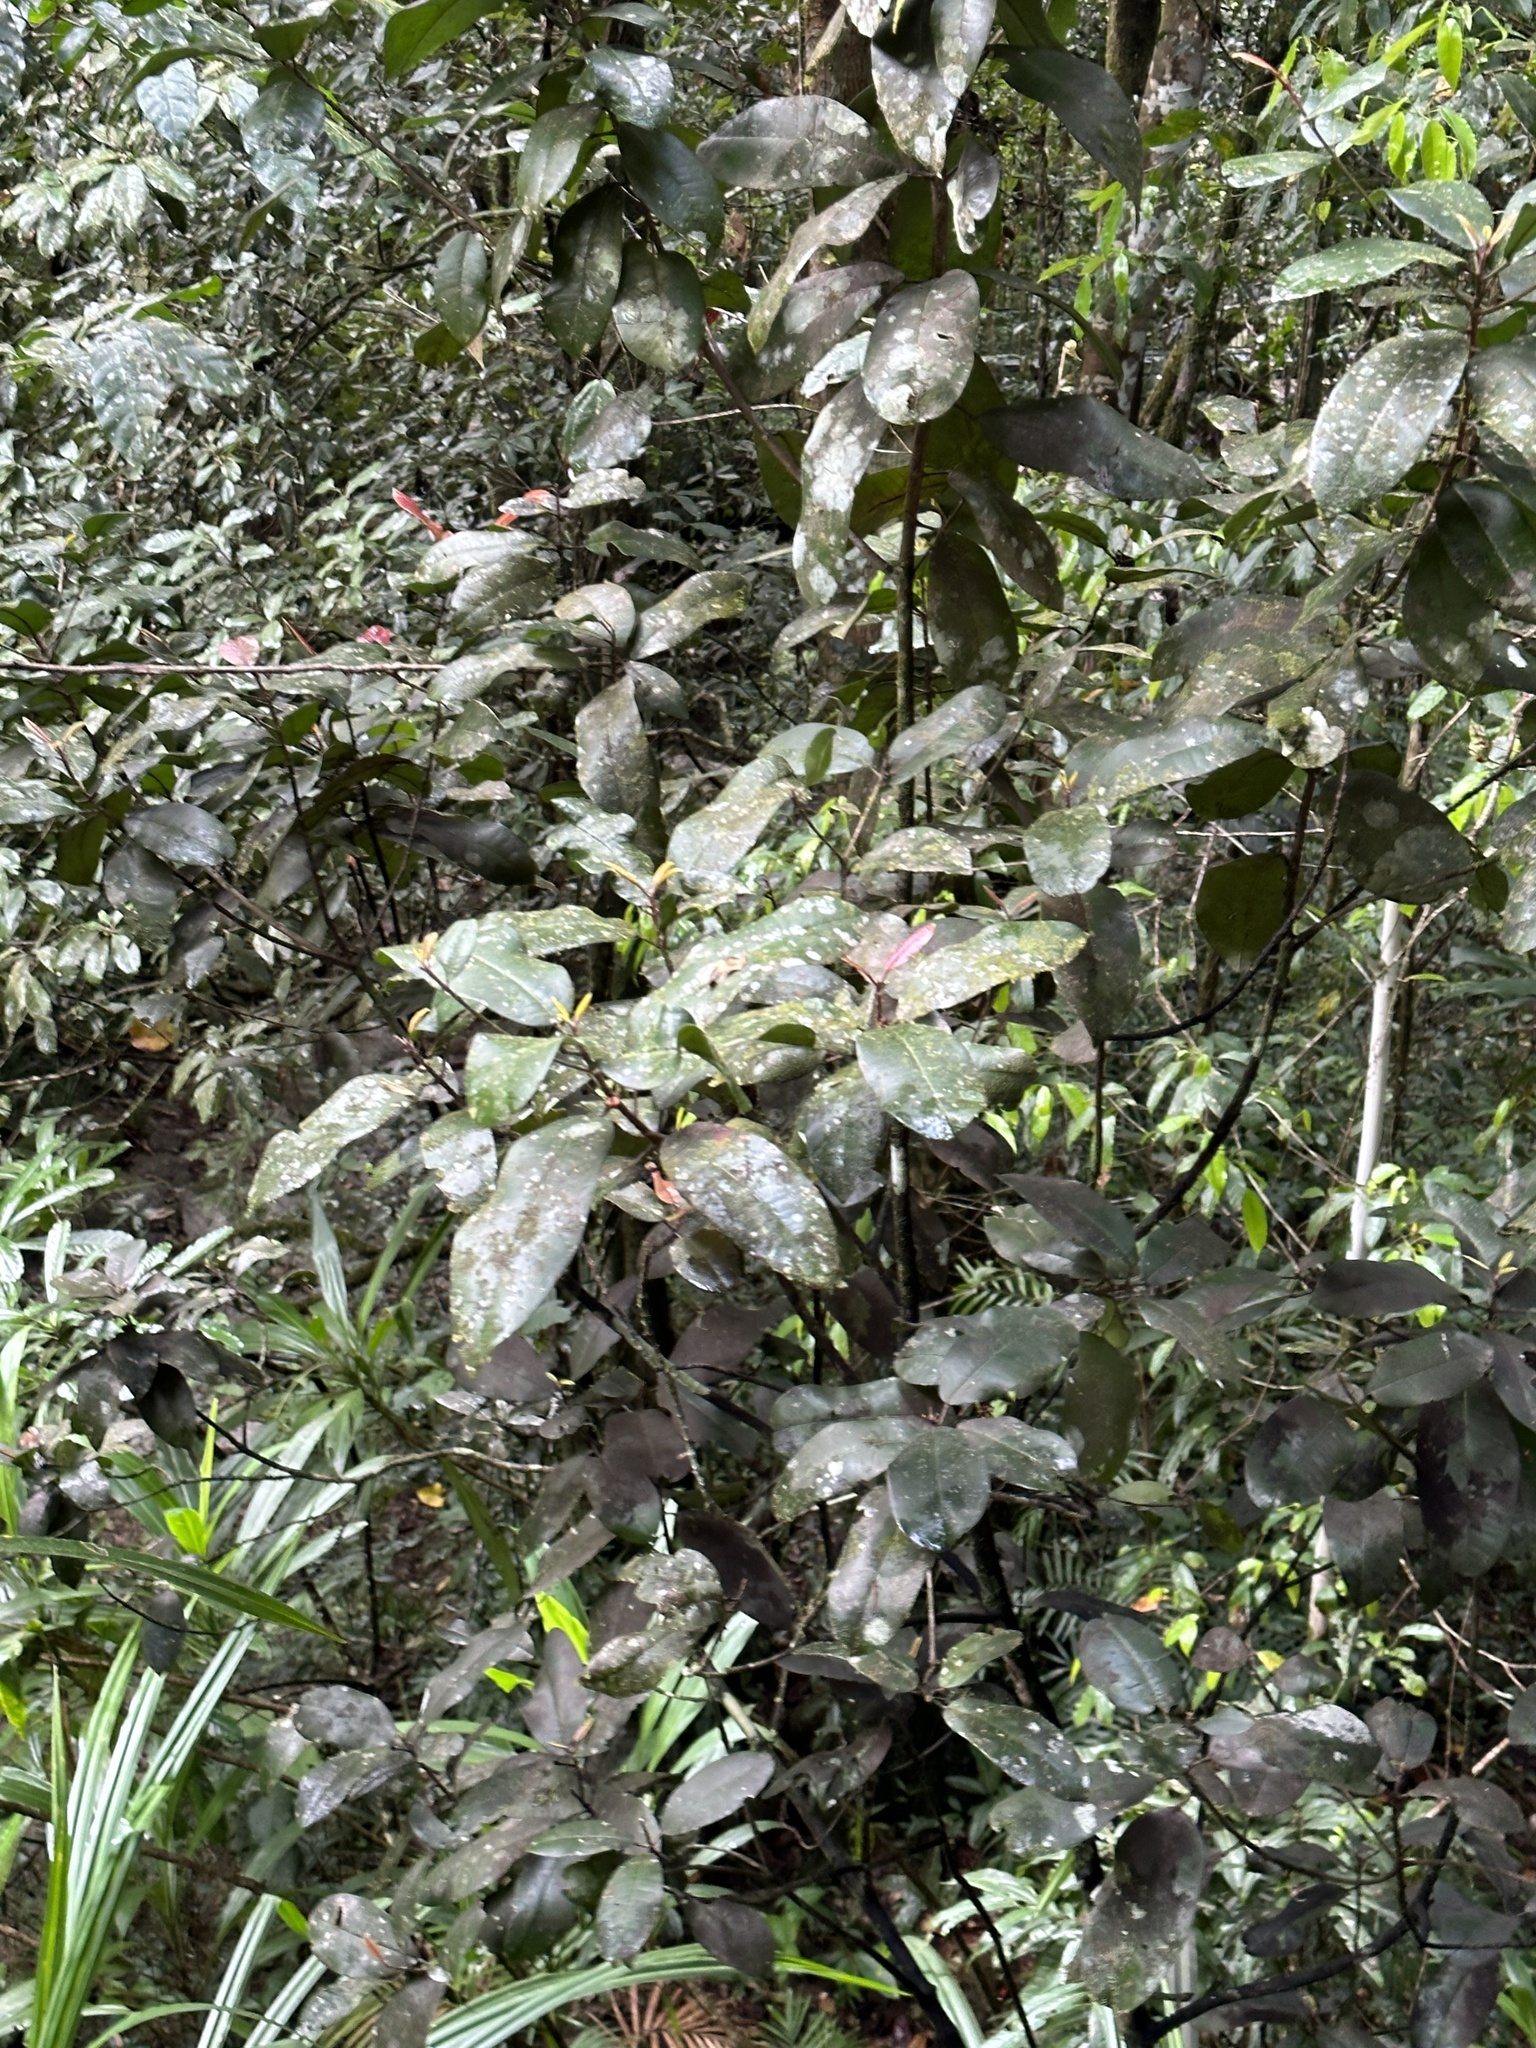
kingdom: Plantae
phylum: Tracheophyta
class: Magnoliopsida
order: Sapindales
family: Rutaceae
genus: Medicosma
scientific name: Medicosma sessiliflora
